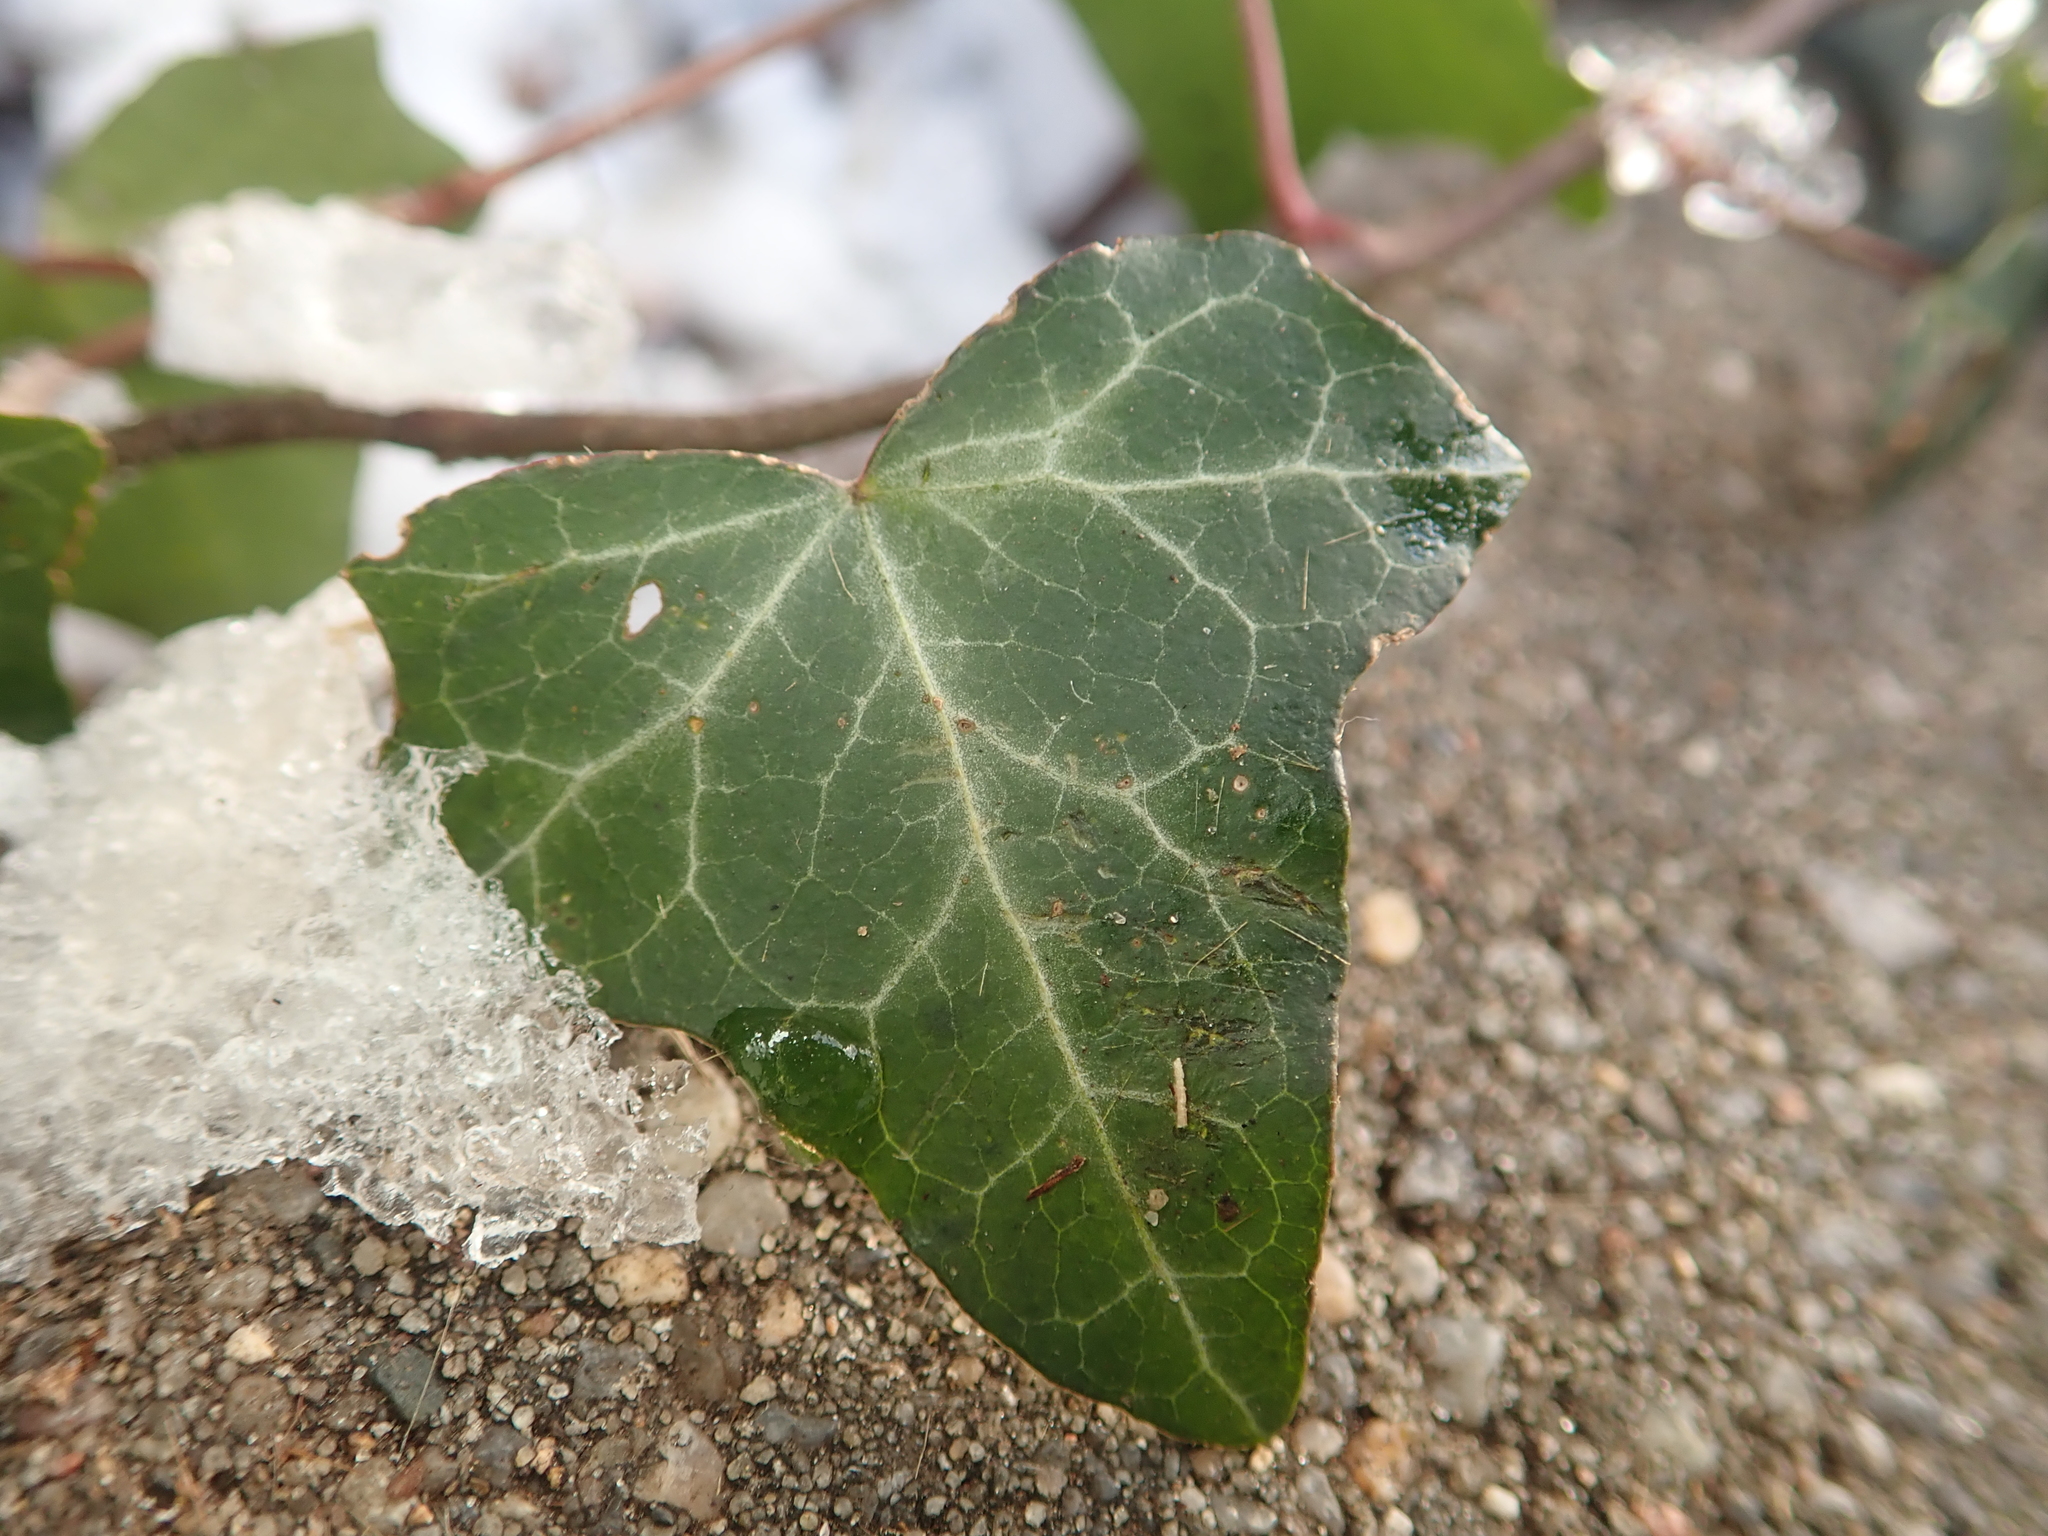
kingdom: Plantae
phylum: Tracheophyta
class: Magnoliopsida
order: Apiales
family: Araliaceae
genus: Hedera
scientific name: Hedera helix
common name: Ivy
